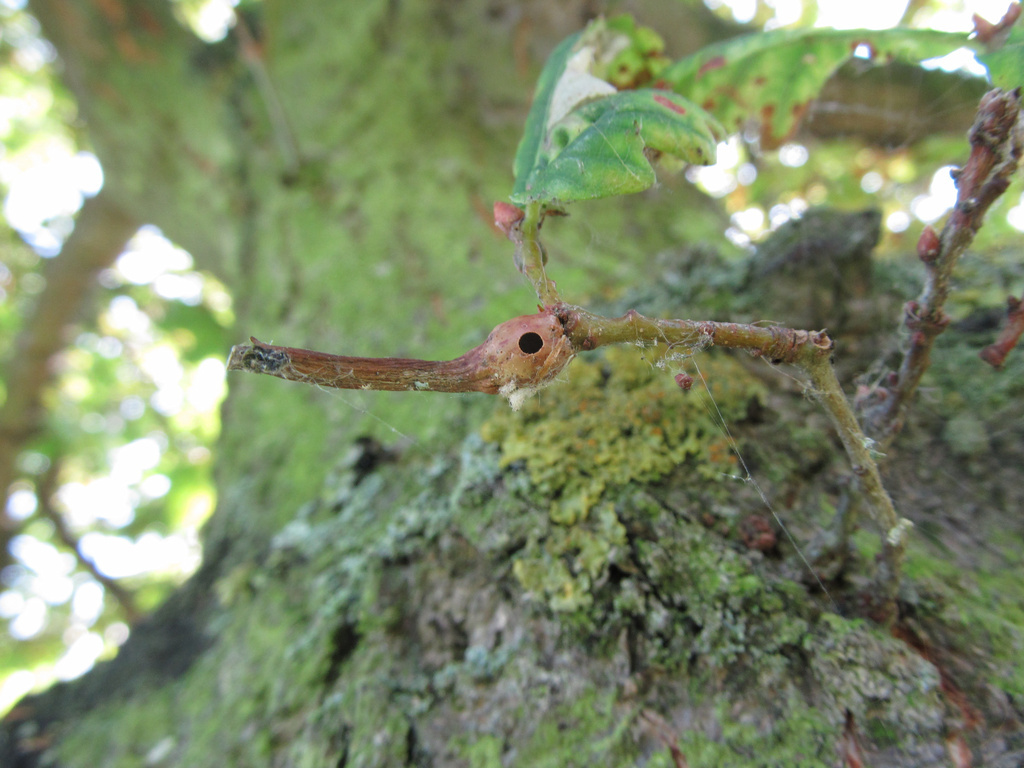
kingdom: Animalia
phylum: Arthropoda
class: Insecta
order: Hymenoptera
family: Cynipidae
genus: Andricus
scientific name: Andricus aries
